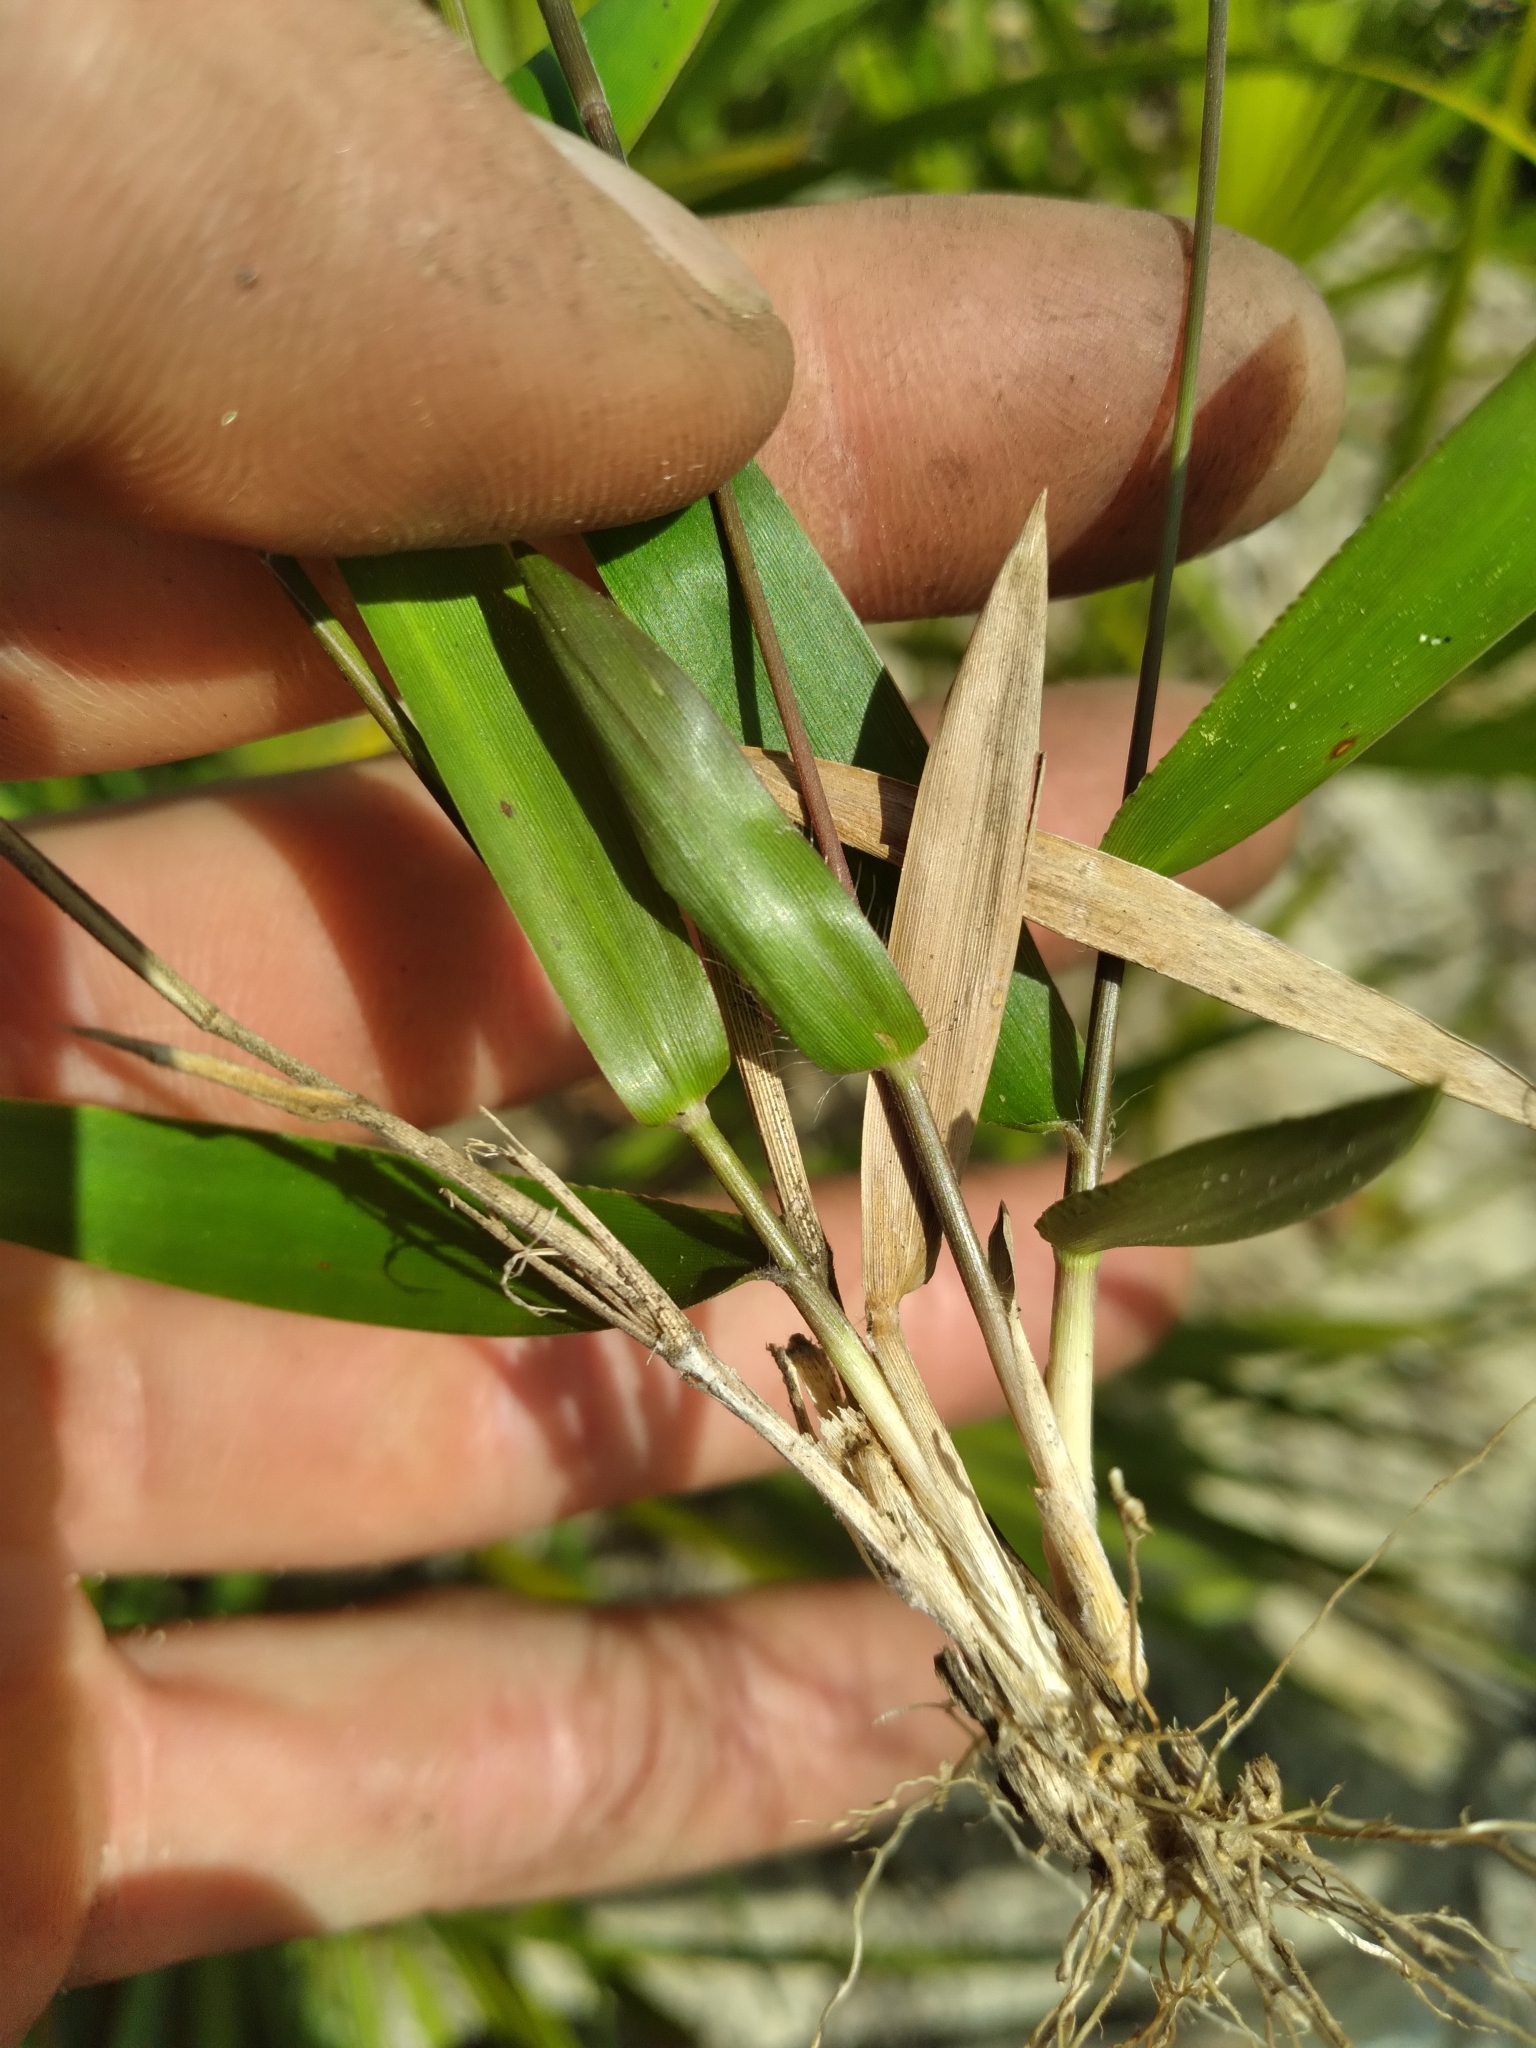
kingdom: Plantae
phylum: Tracheophyta
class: Liliopsida
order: Poales
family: Poaceae
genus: Dichanthelium
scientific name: Dichanthelium patentifolium
